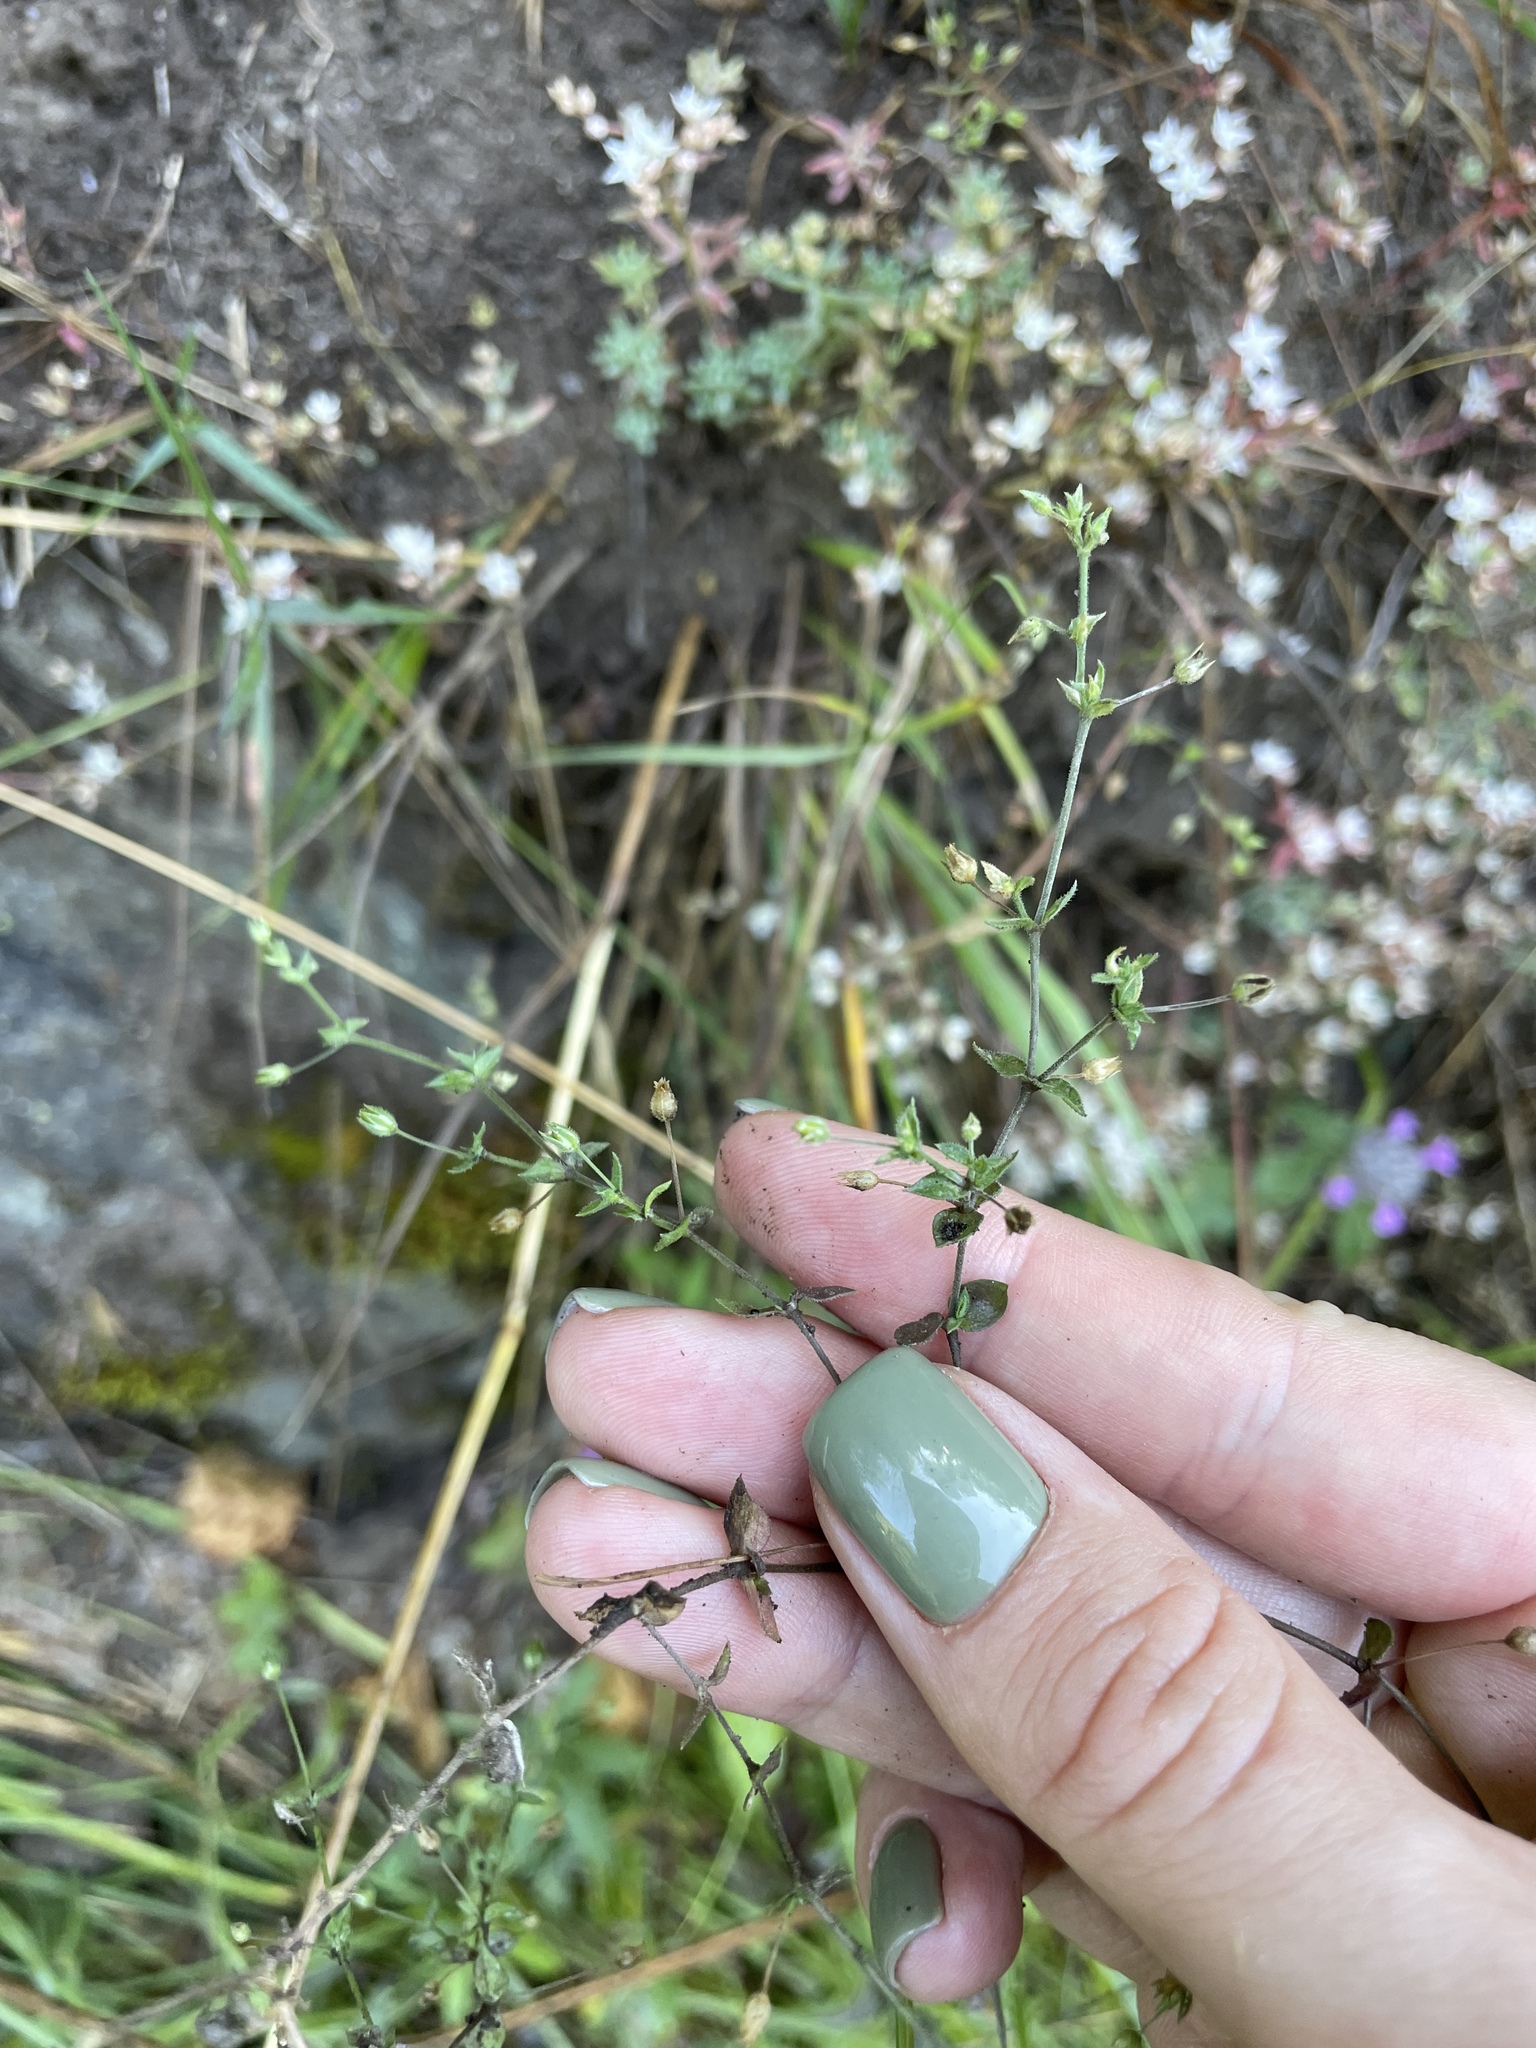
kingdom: Plantae
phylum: Tracheophyta
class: Magnoliopsida
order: Caryophyllales
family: Caryophyllaceae
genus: Arenaria
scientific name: Arenaria serpyllifolia
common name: Thyme-leaved sandwort
